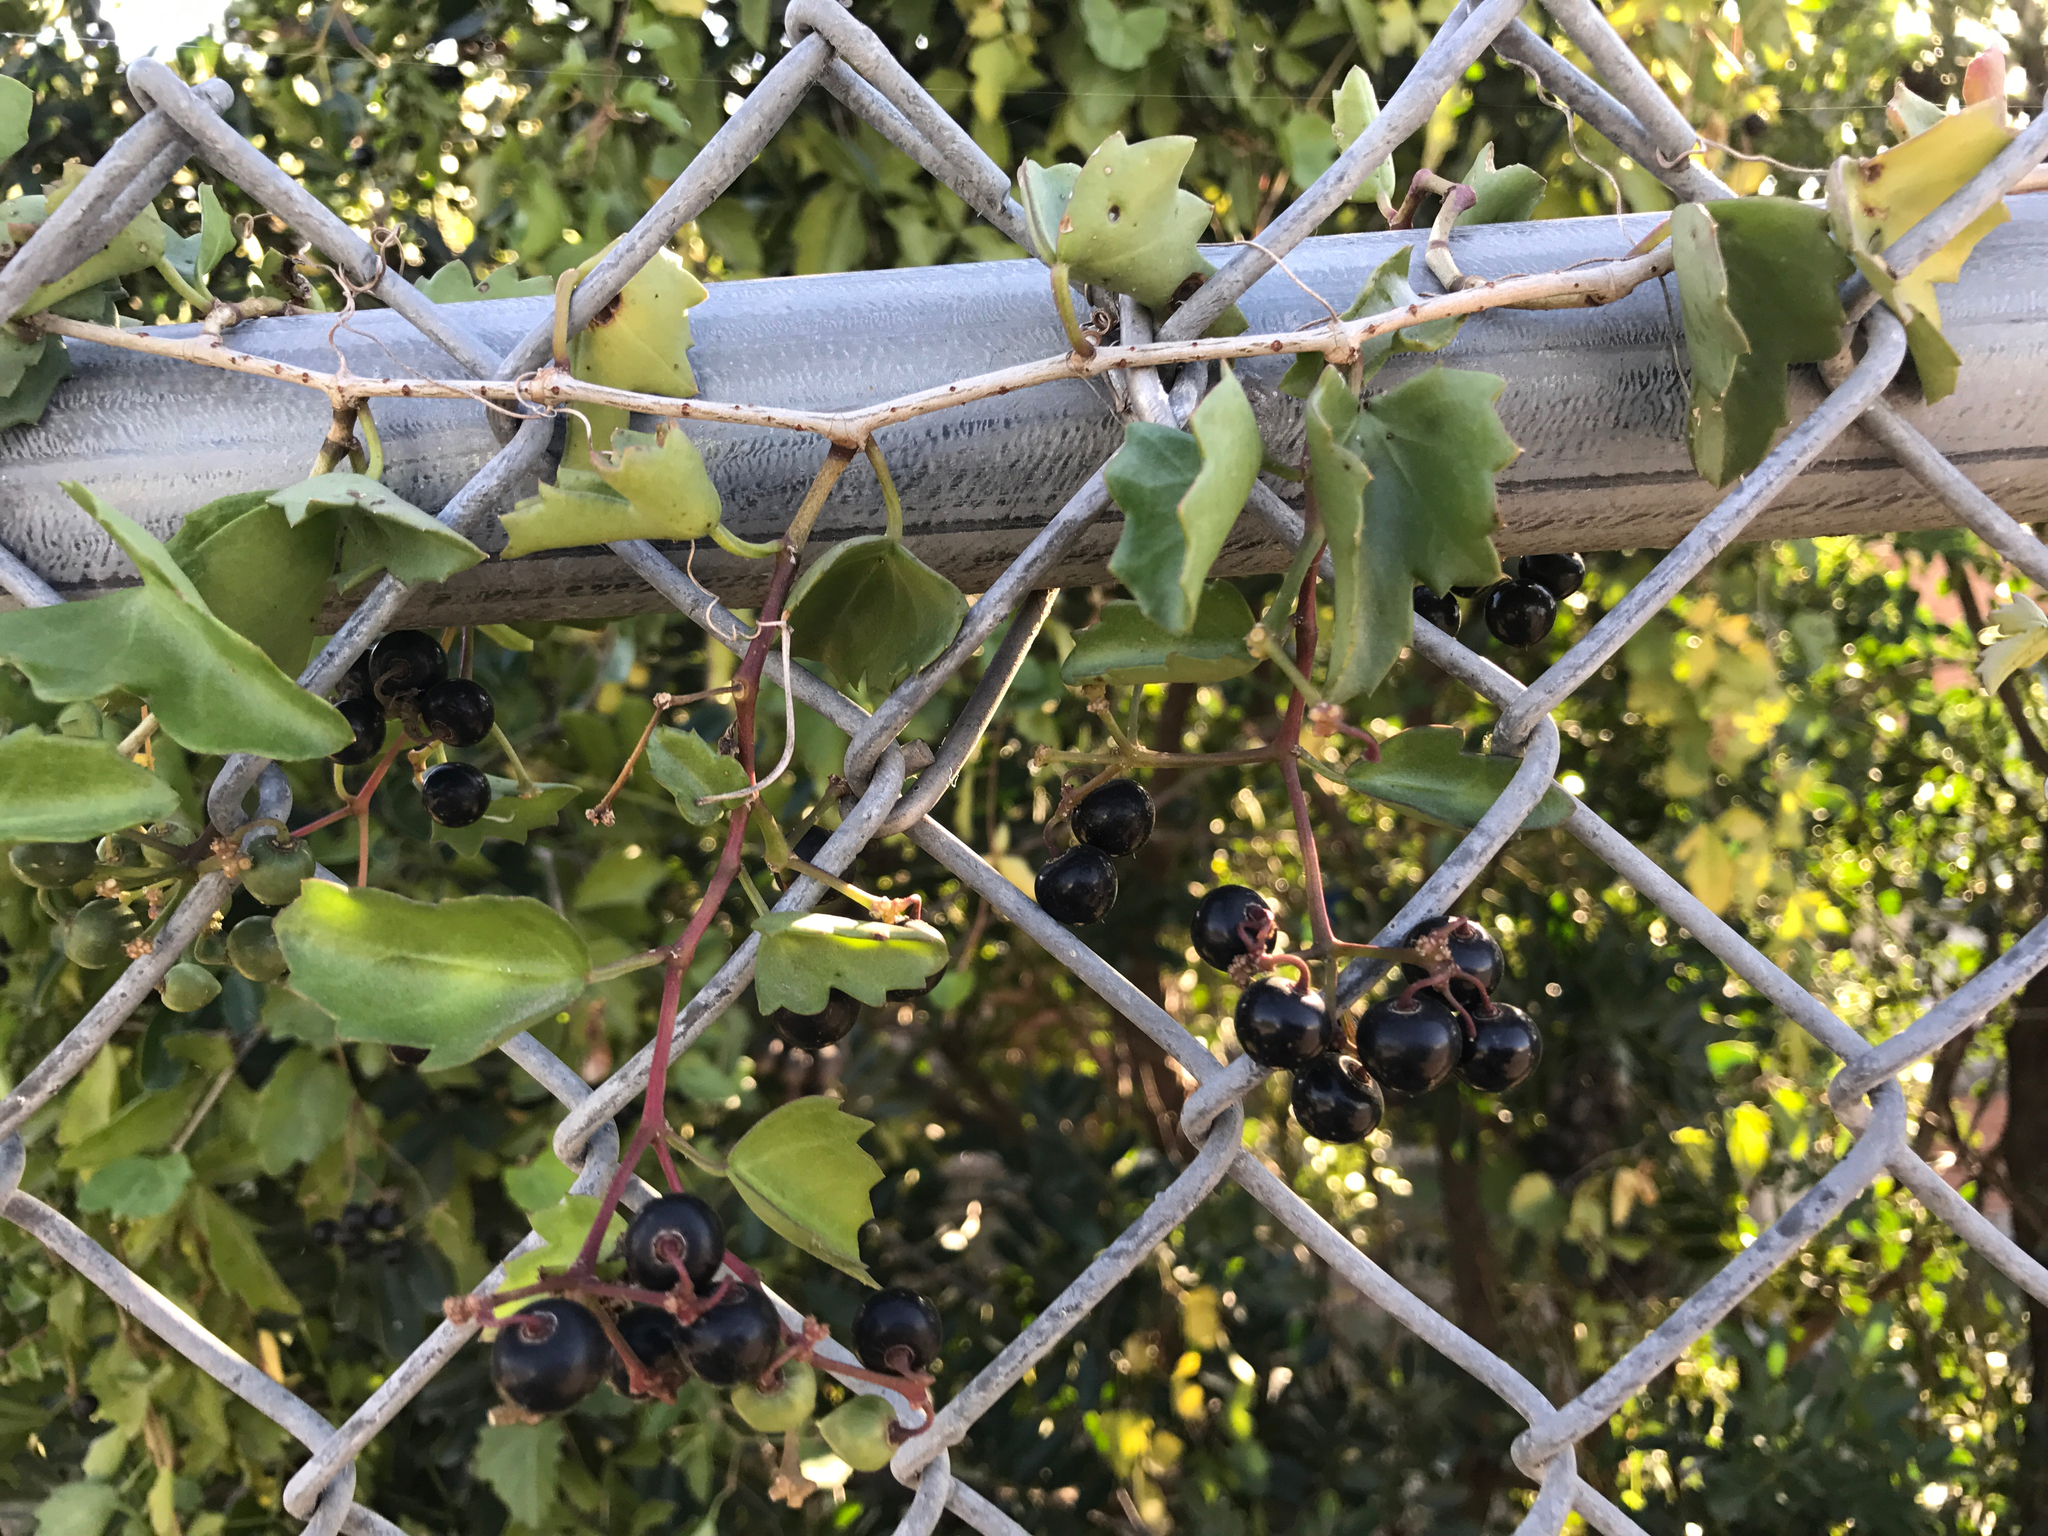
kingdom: Plantae
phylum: Tracheophyta
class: Magnoliopsida
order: Vitales
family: Vitaceae
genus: Cissus
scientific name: Cissus trifoliata
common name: Vine-sorrel
